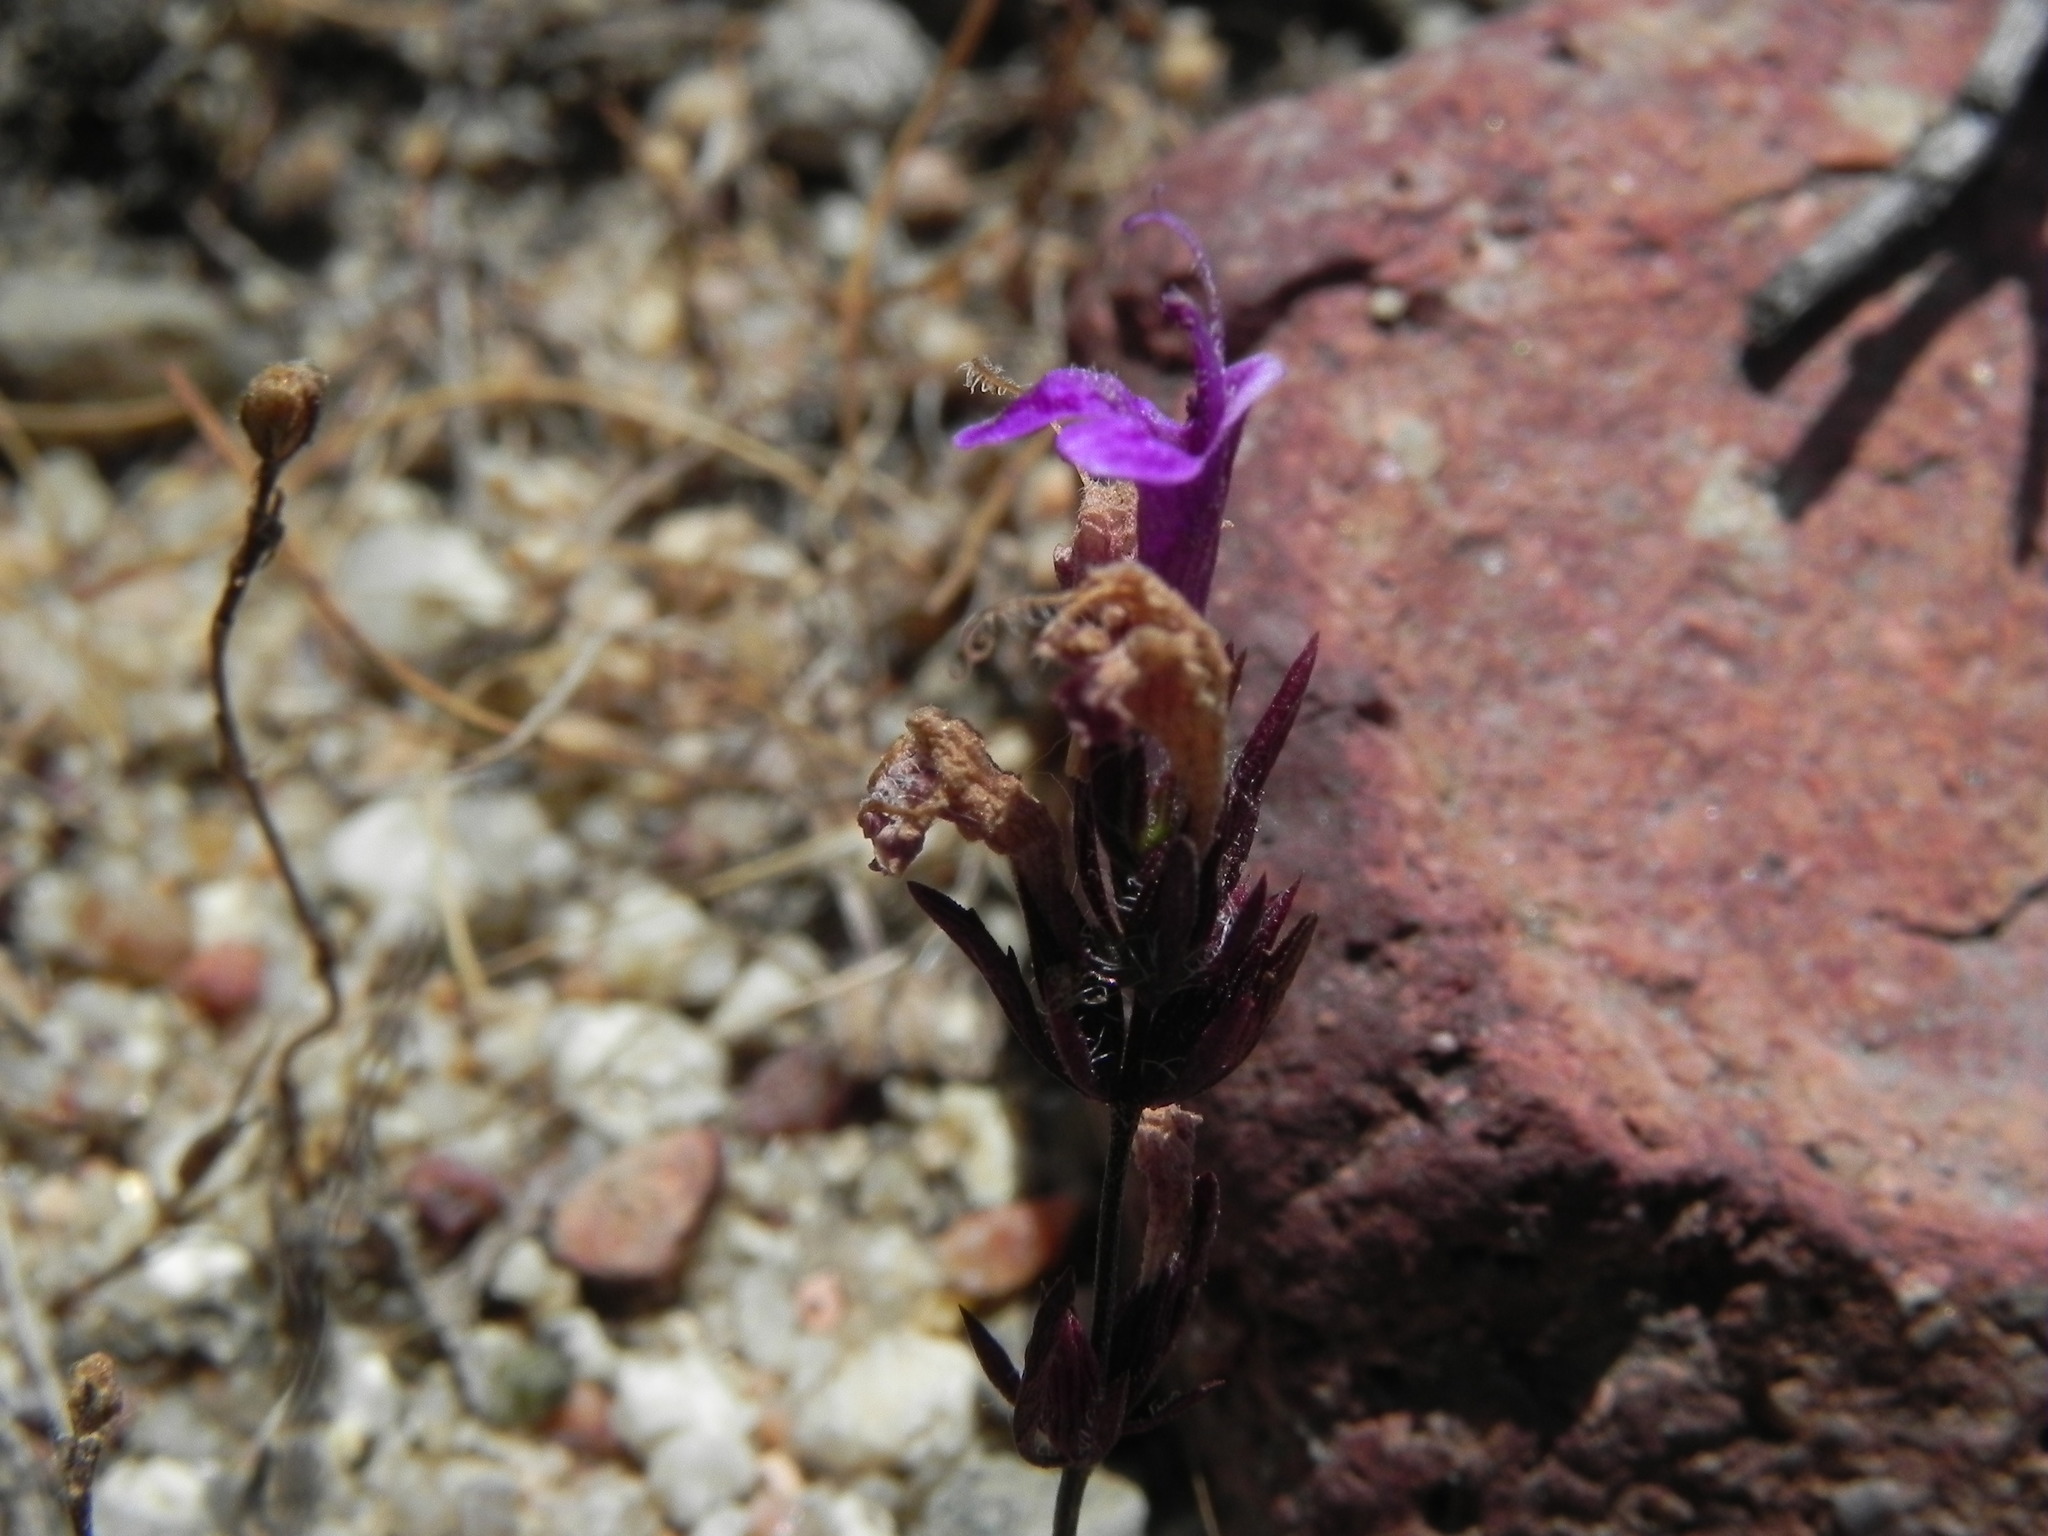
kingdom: Plantae
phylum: Tracheophyta
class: Magnoliopsida
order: Lamiales
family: Lamiaceae
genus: Pogogyne
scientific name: Pogogyne nudiuscula
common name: Otay mesa-mint
